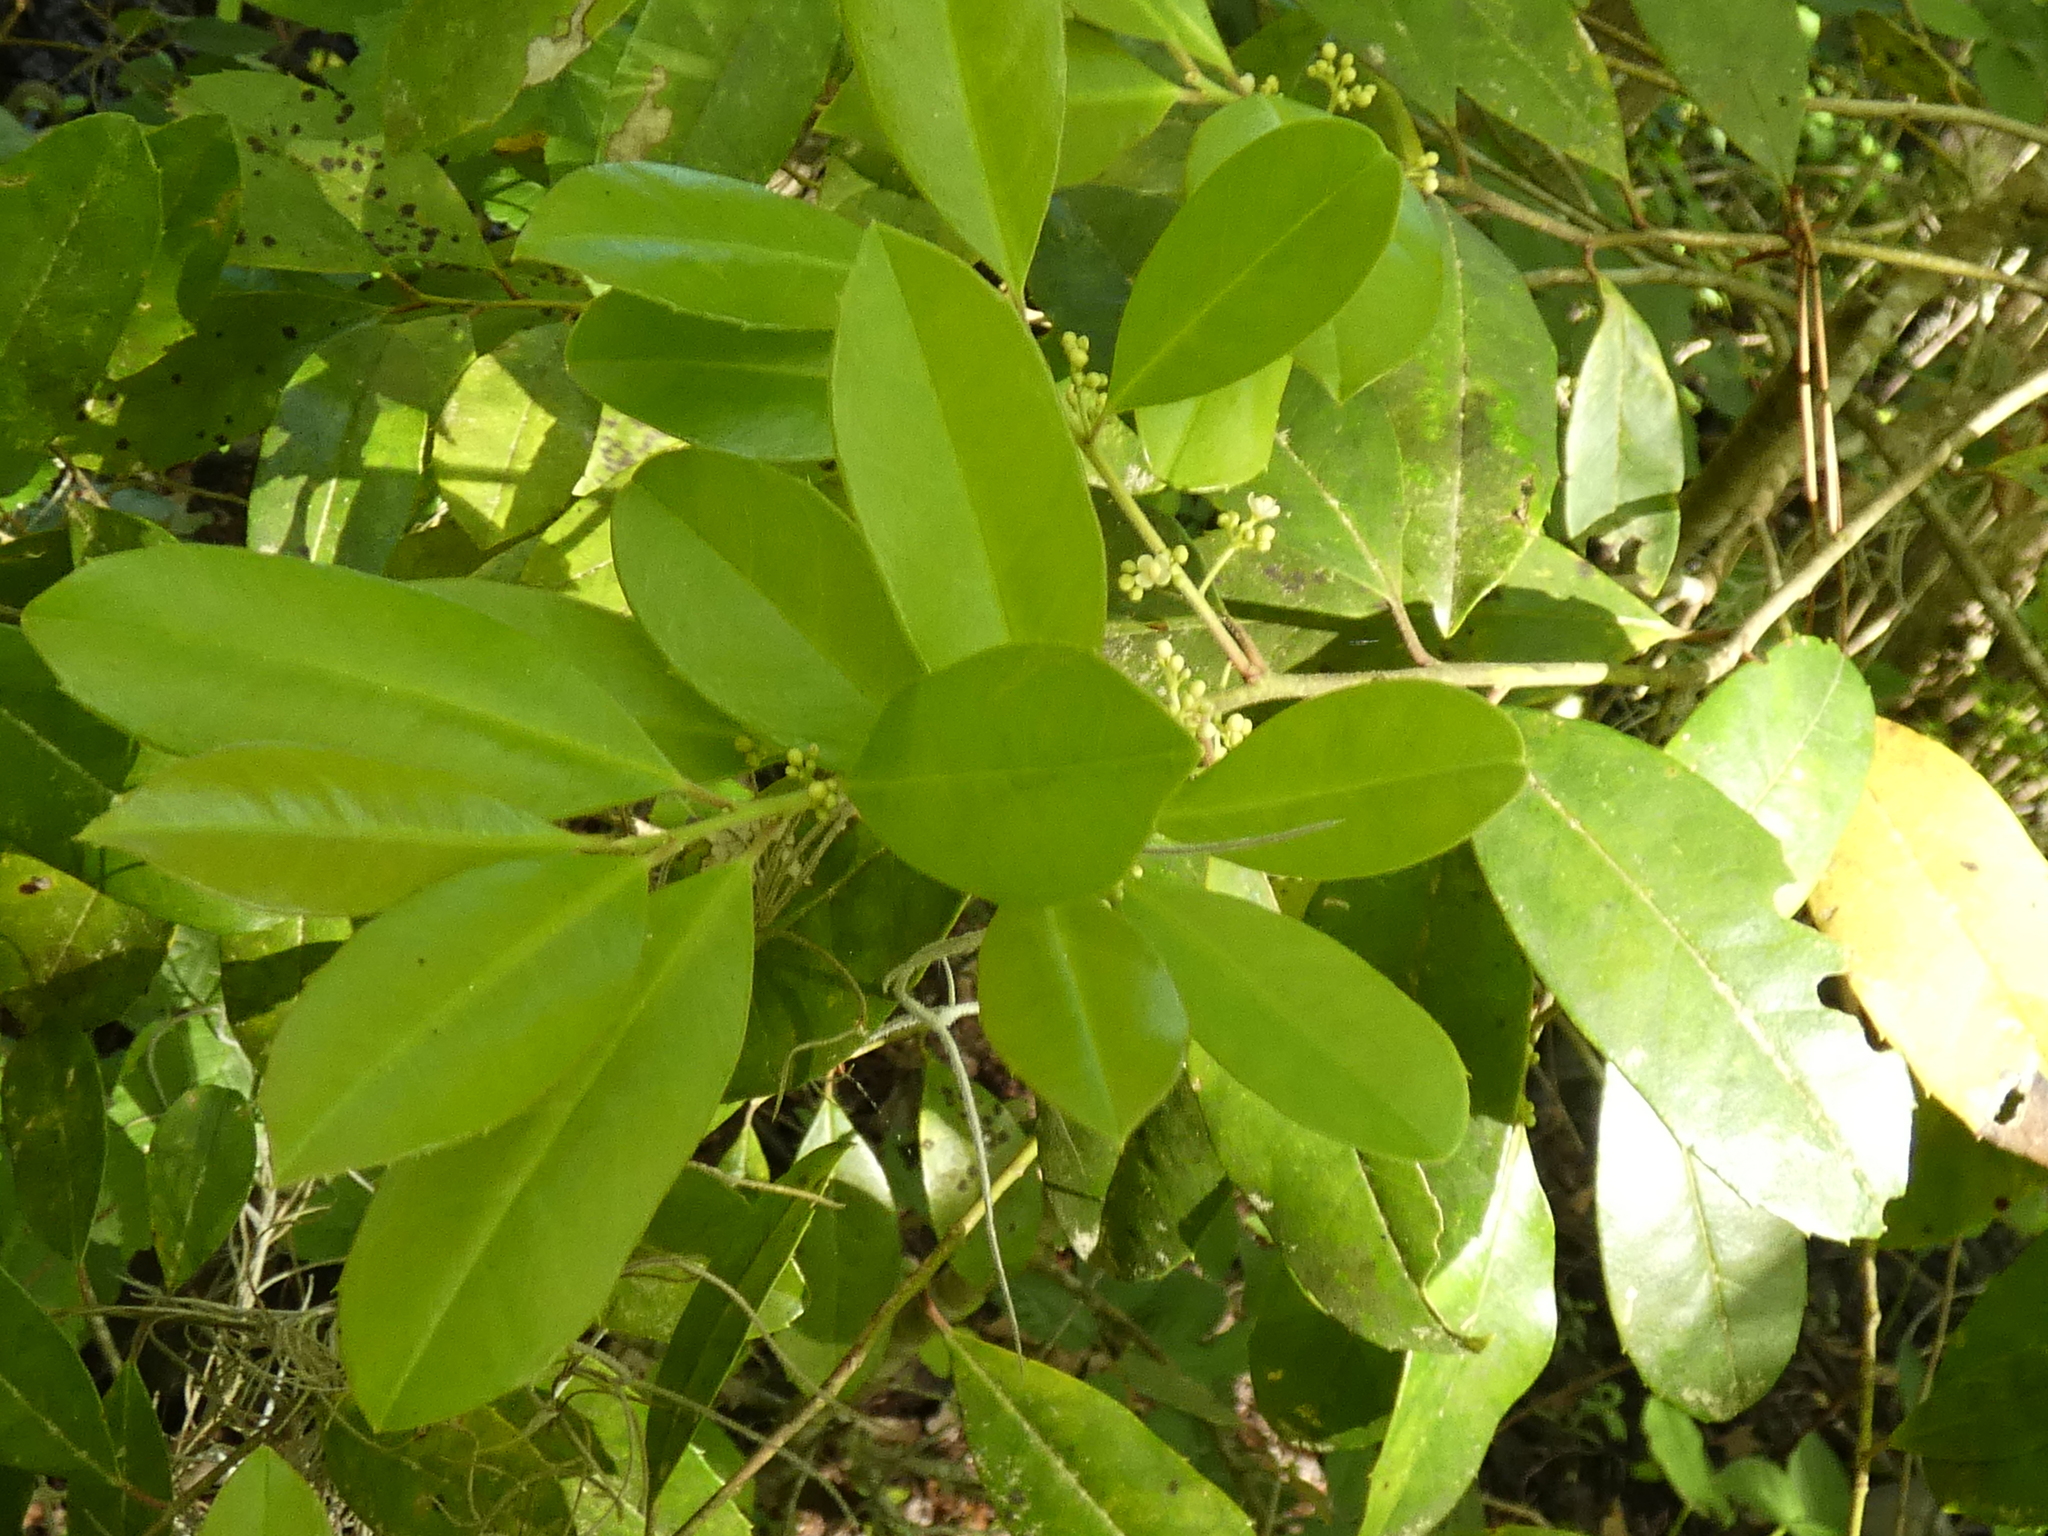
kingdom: Plantae
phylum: Tracheophyta
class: Magnoliopsida
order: Aquifoliales
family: Aquifoliaceae
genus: Ilex
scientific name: Ilex cassine
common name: Dahoon
